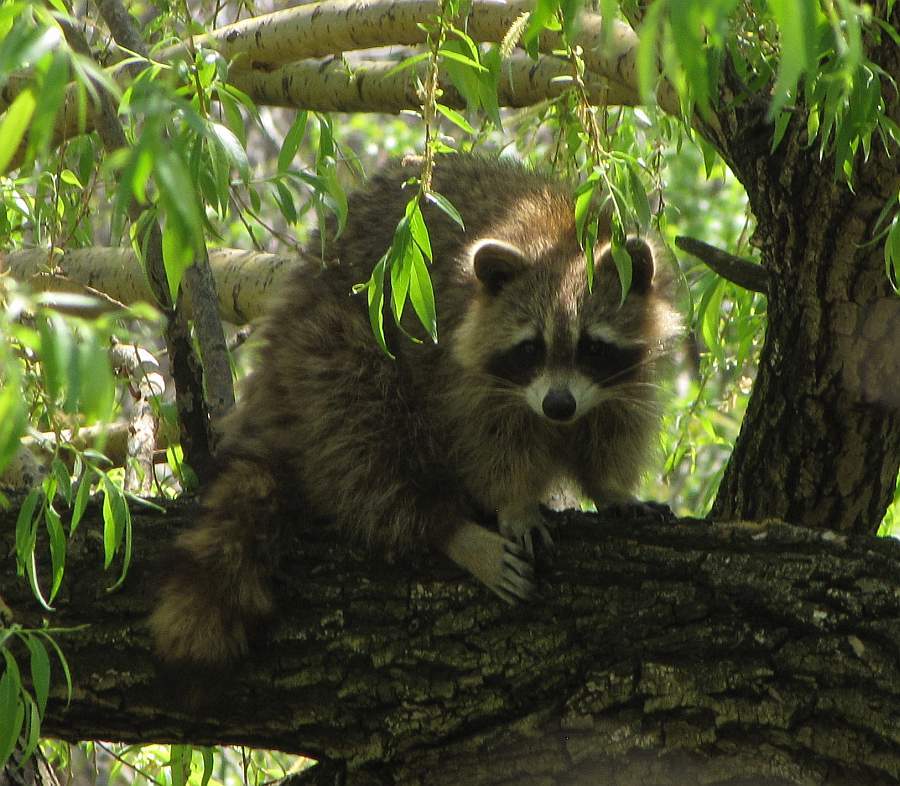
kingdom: Animalia
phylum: Chordata
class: Mammalia
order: Carnivora
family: Procyonidae
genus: Procyon
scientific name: Procyon lotor
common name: Raccoon
